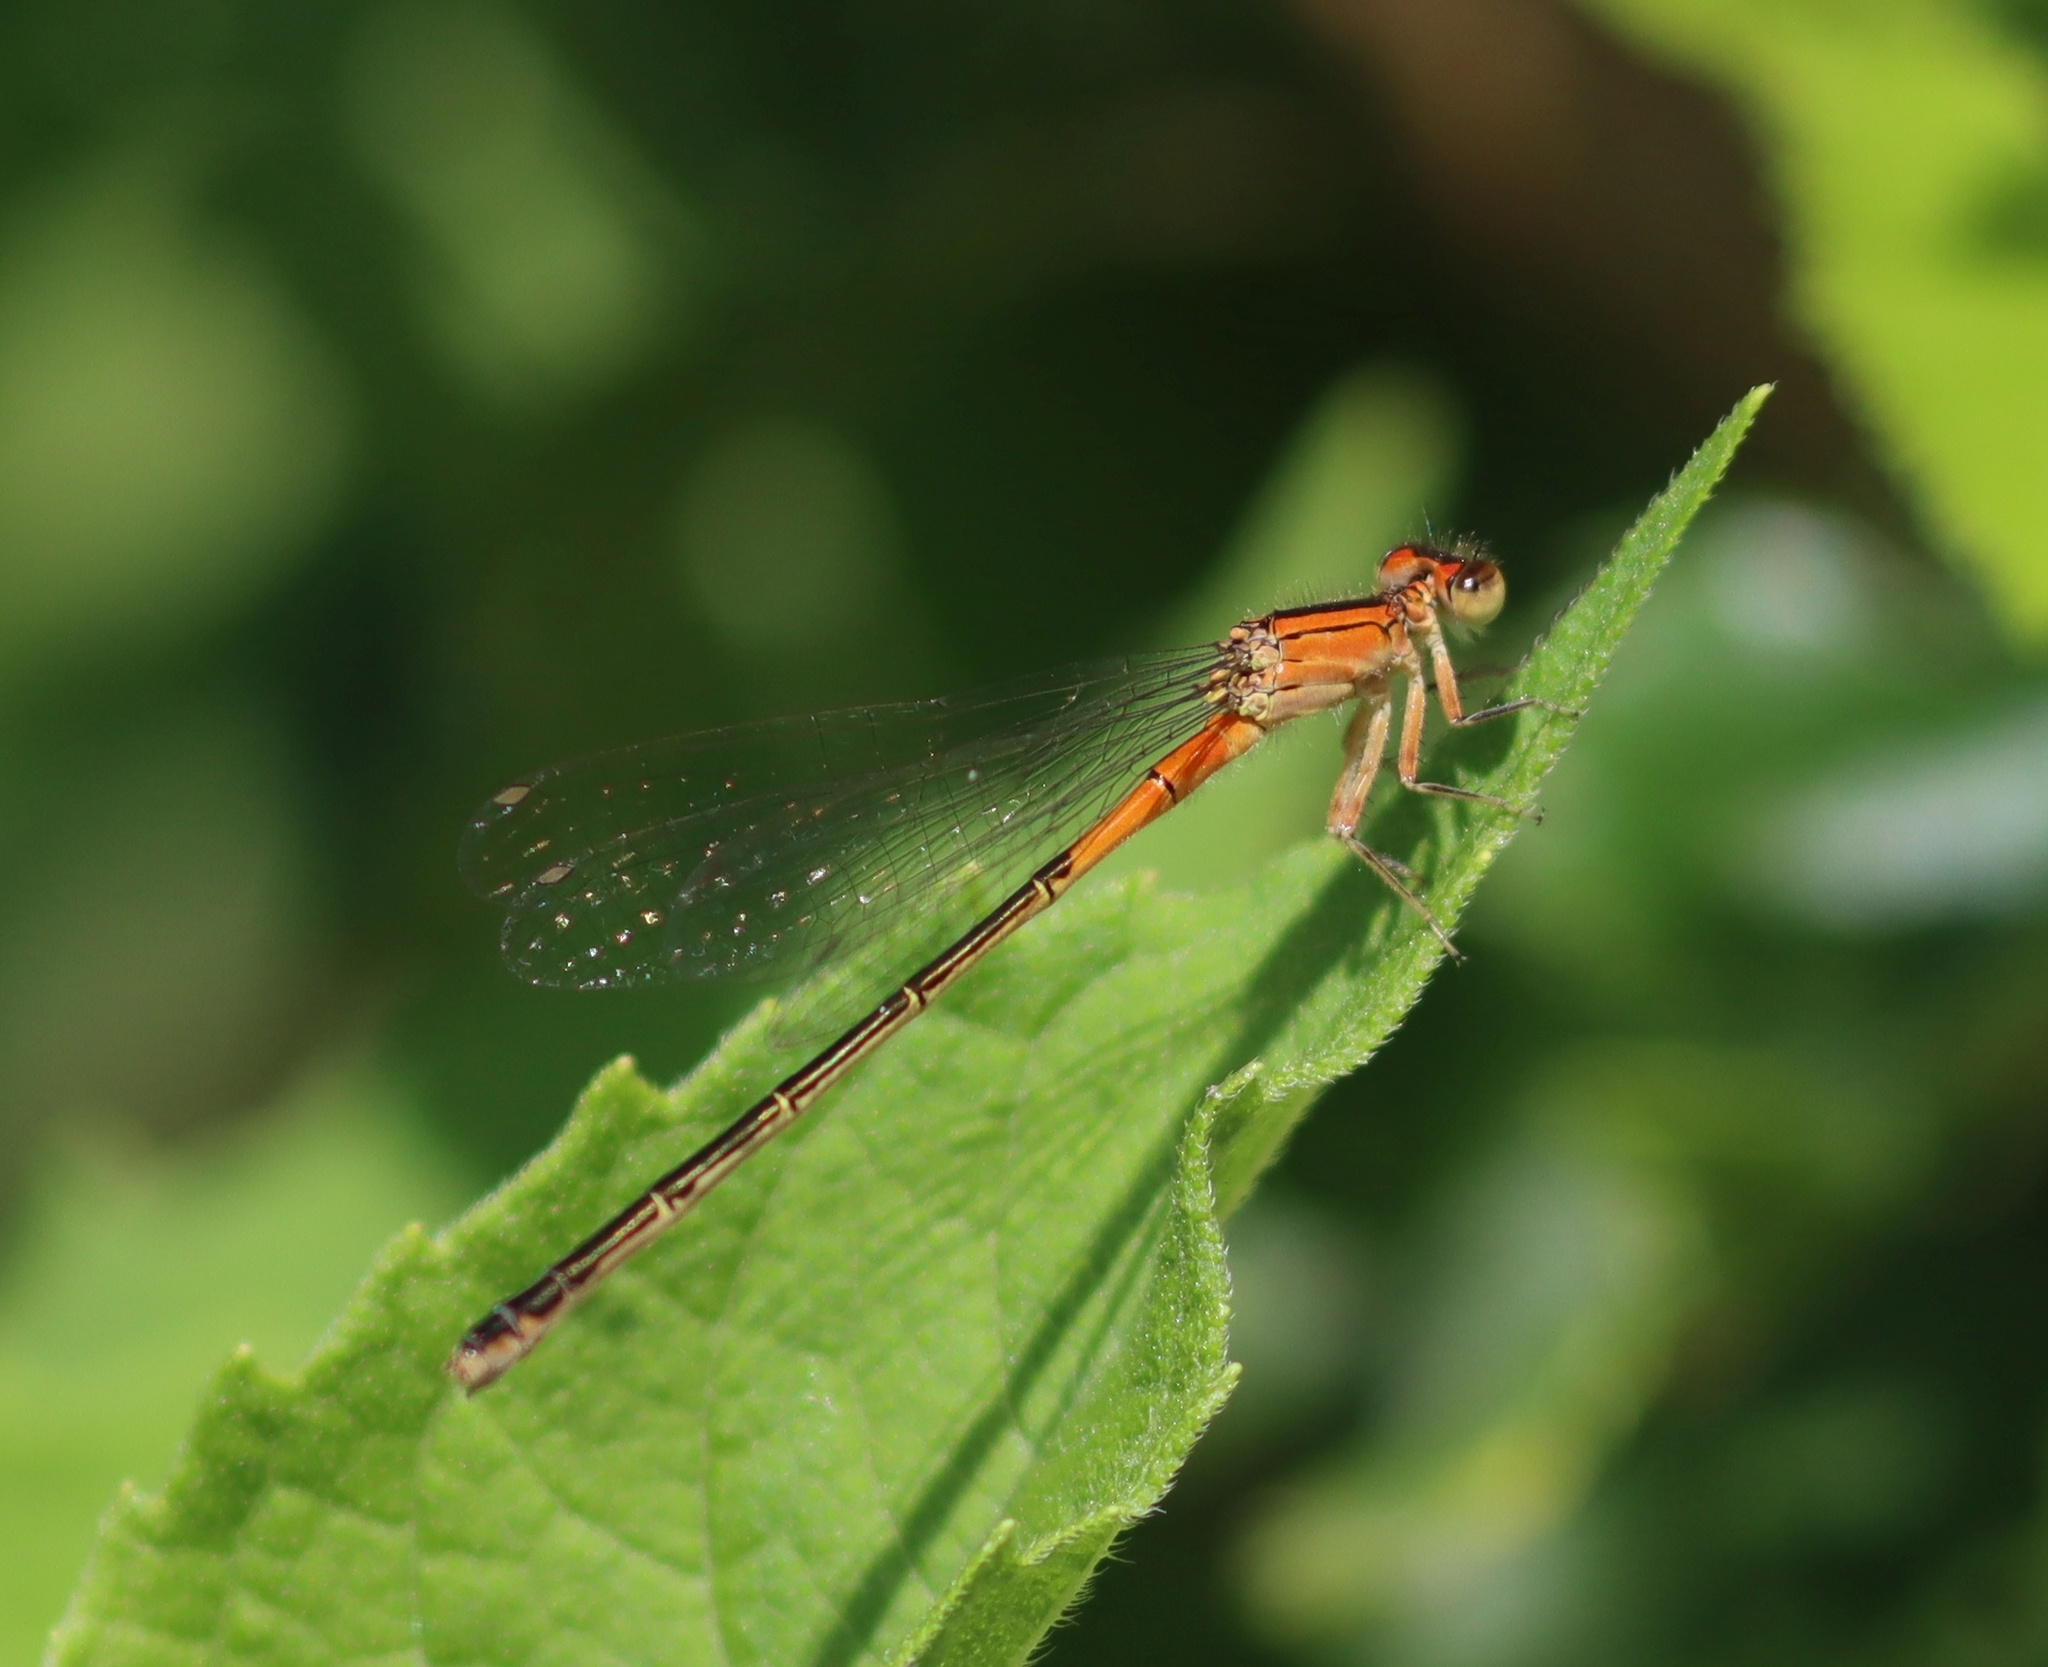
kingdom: Animalia
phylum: Arthropoda
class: Insecta
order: Odonata
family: Coenagrionidae
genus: Ischnura
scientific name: Ischnura verticalis
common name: Eastern forktail
